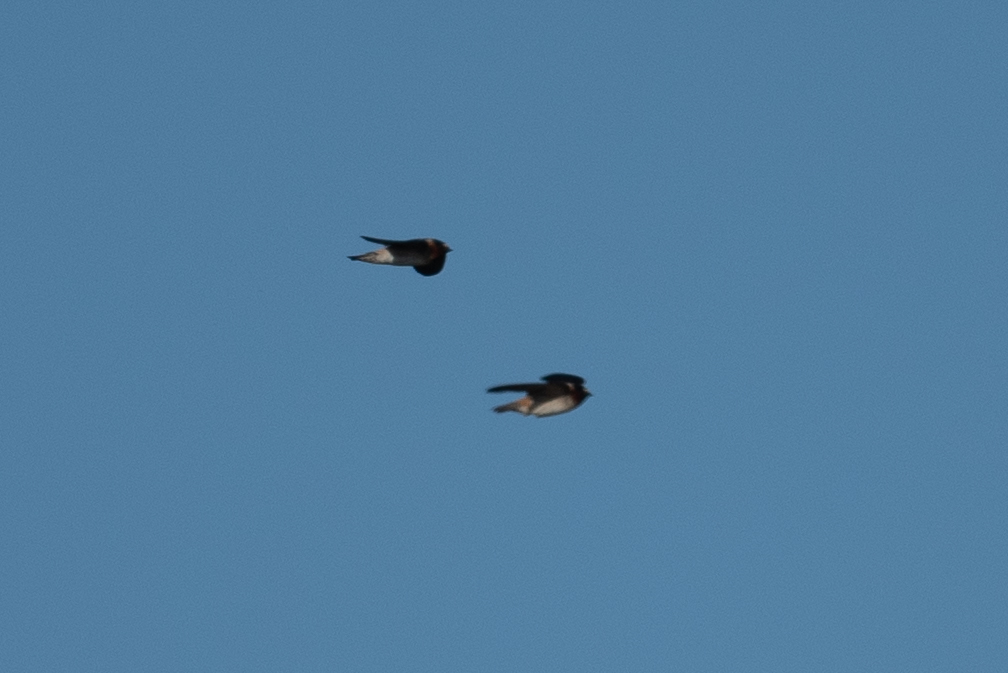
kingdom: Animalia
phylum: Chordata
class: Aves
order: Passeriformes
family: Hirundinidae
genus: Petrochelidon
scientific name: Petrochelidon pyrrhonota
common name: American cliff swallow
